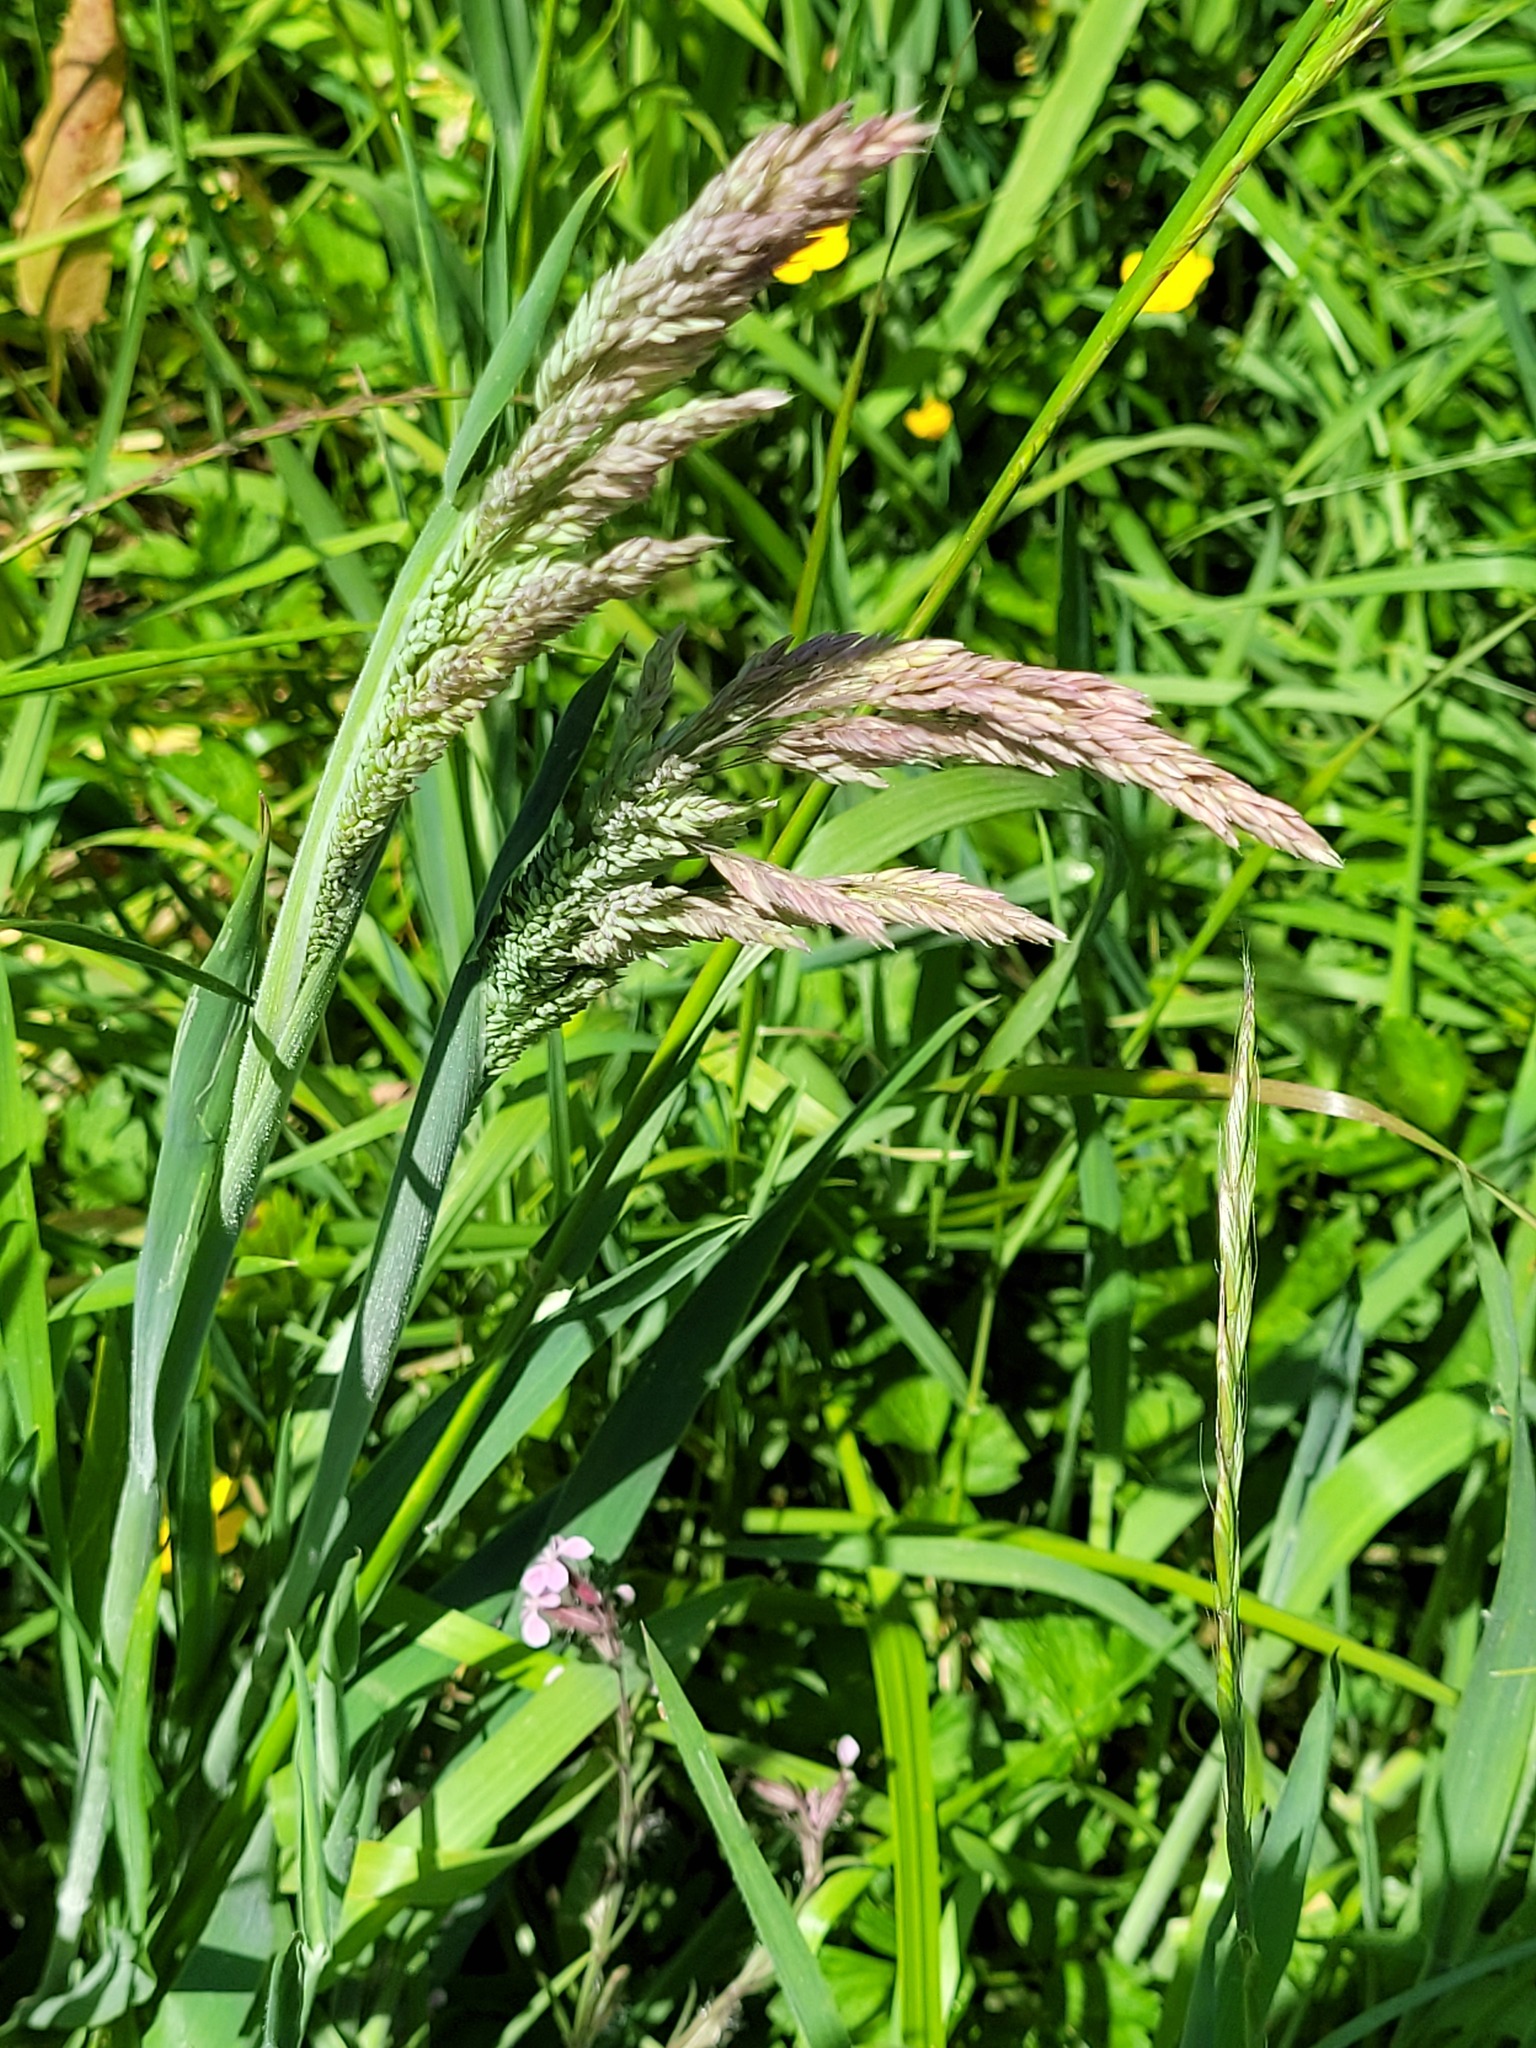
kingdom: Plantae
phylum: Tracheophyta
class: Liliopsida
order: Poales
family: Poaceae
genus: Holcus
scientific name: Holcus lanatus
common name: Yorkshire-fog
